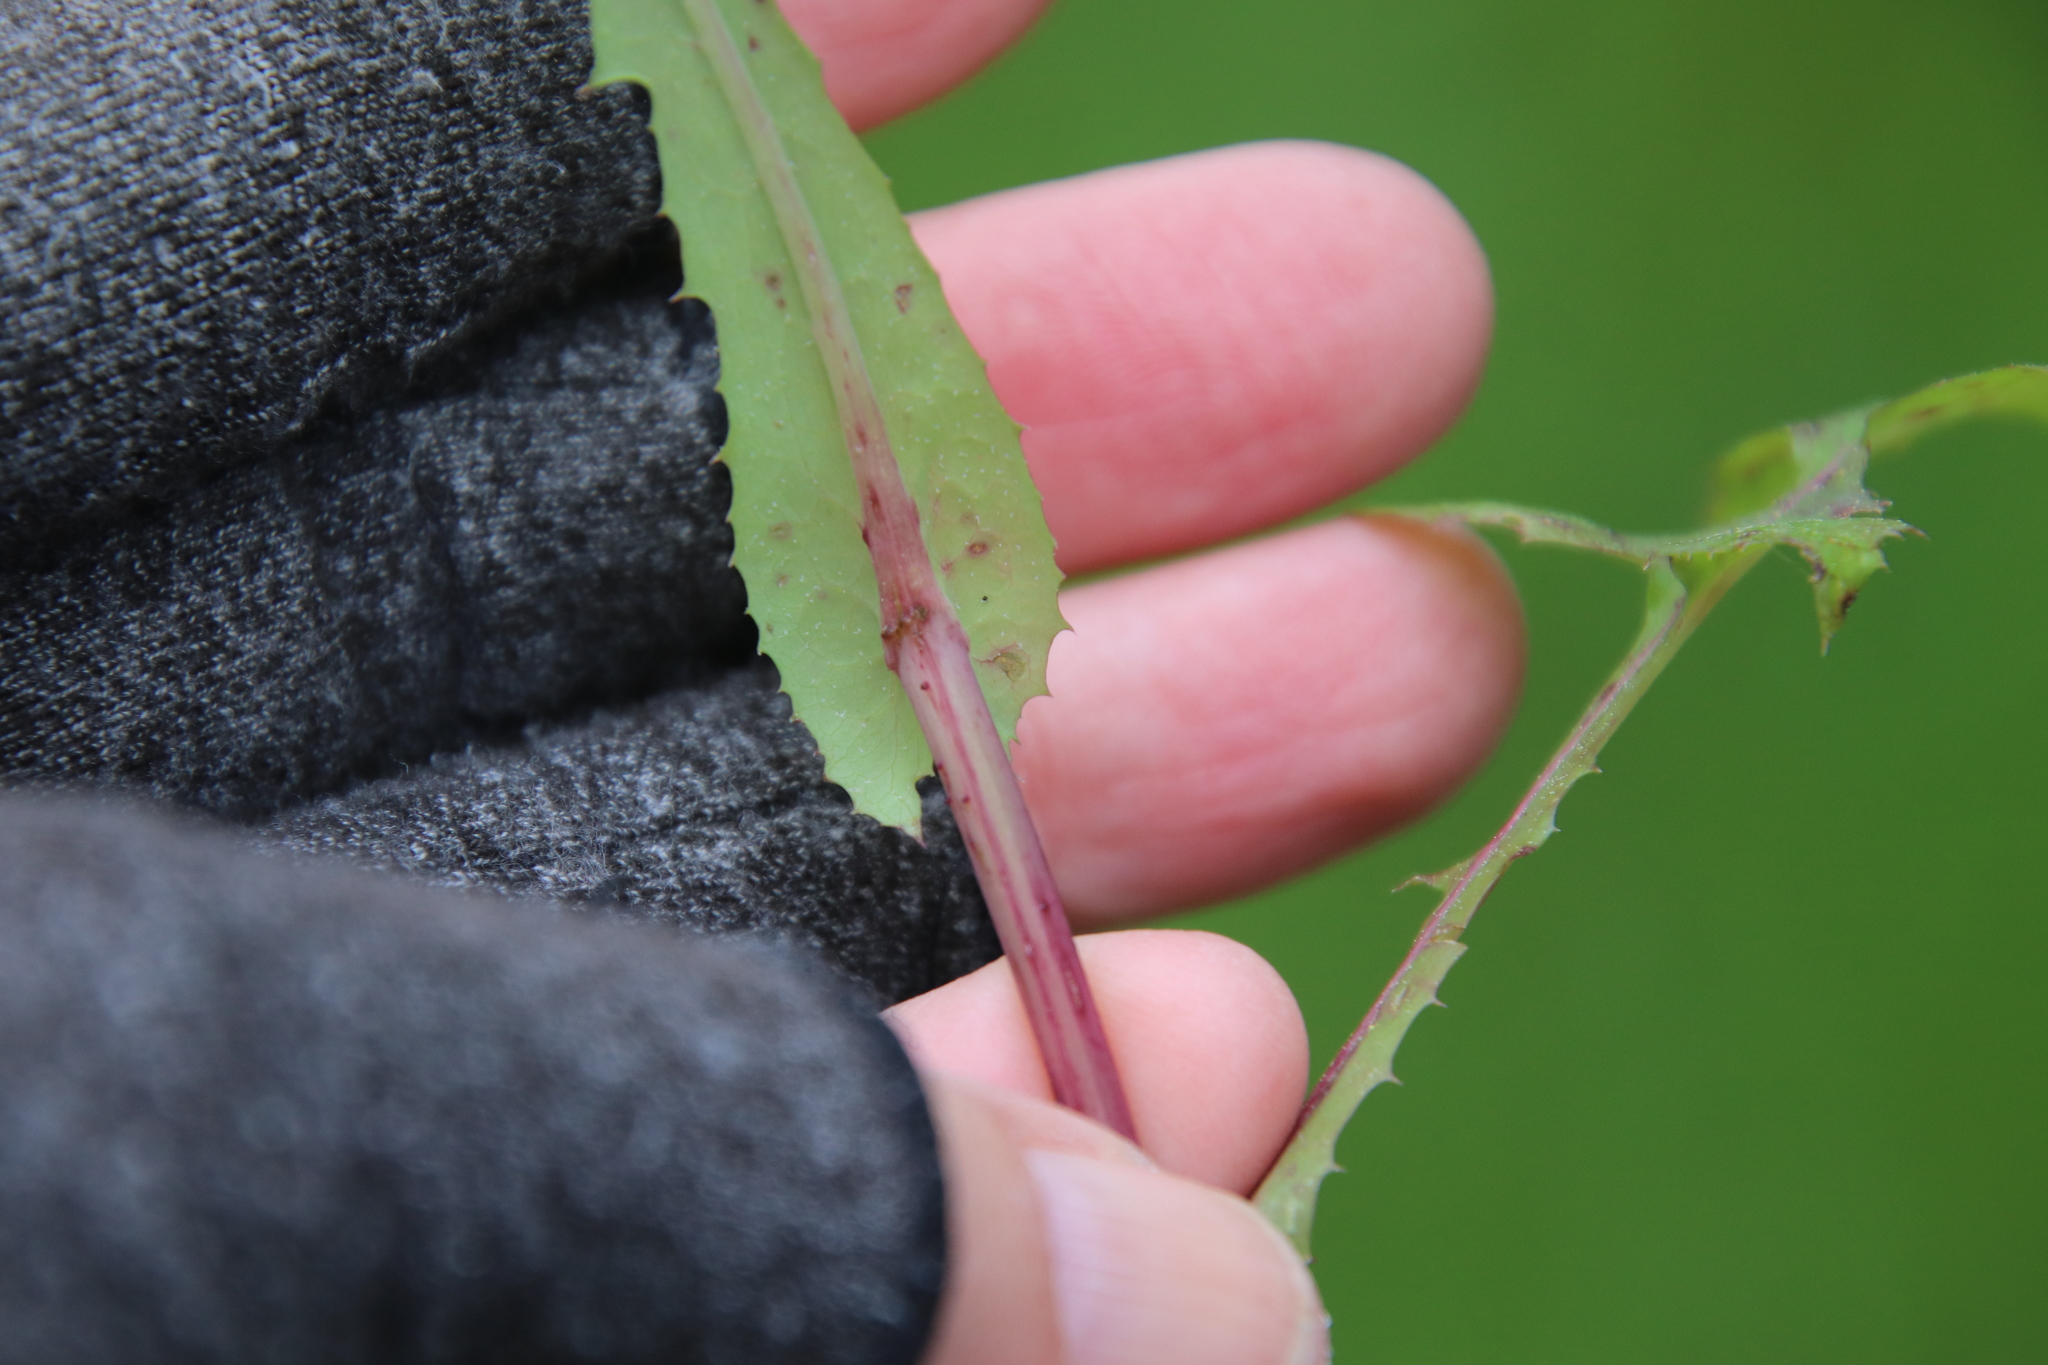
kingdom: Plantae
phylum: Tracheophyta
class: Magnoliopsida
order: Asterales
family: Asteraceae
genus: Sonchus
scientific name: Sonchus oleraceus
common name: Common sowthistle
